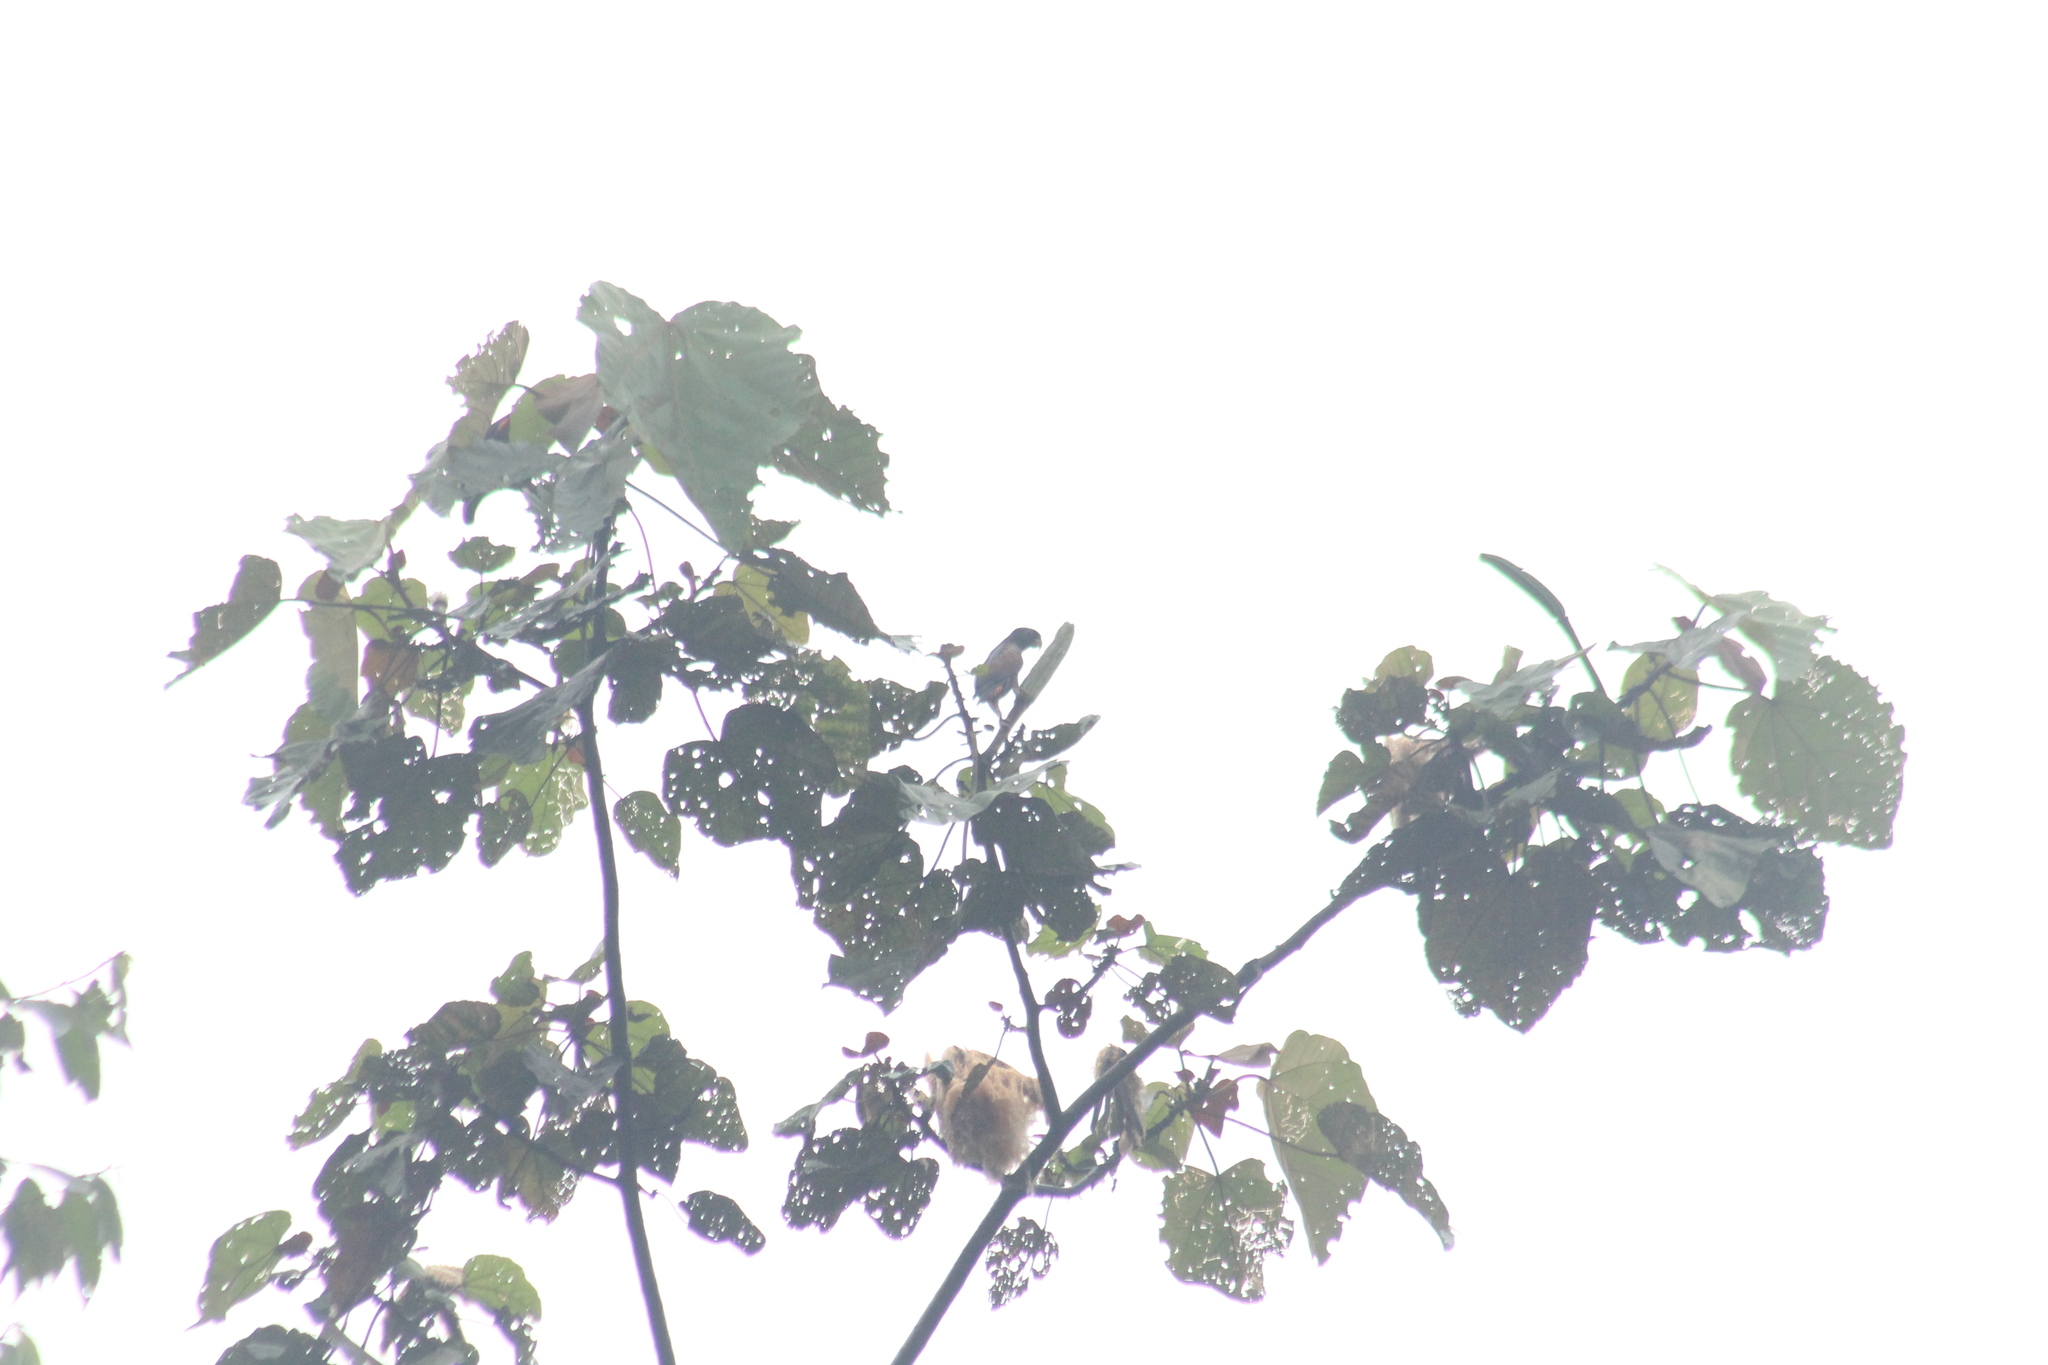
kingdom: Animalia
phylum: Chordata
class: Aves
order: Psittaciformes
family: Psittacidae
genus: Pionus
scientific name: Pionus chalcopterus
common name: Bronze-winged parrot
